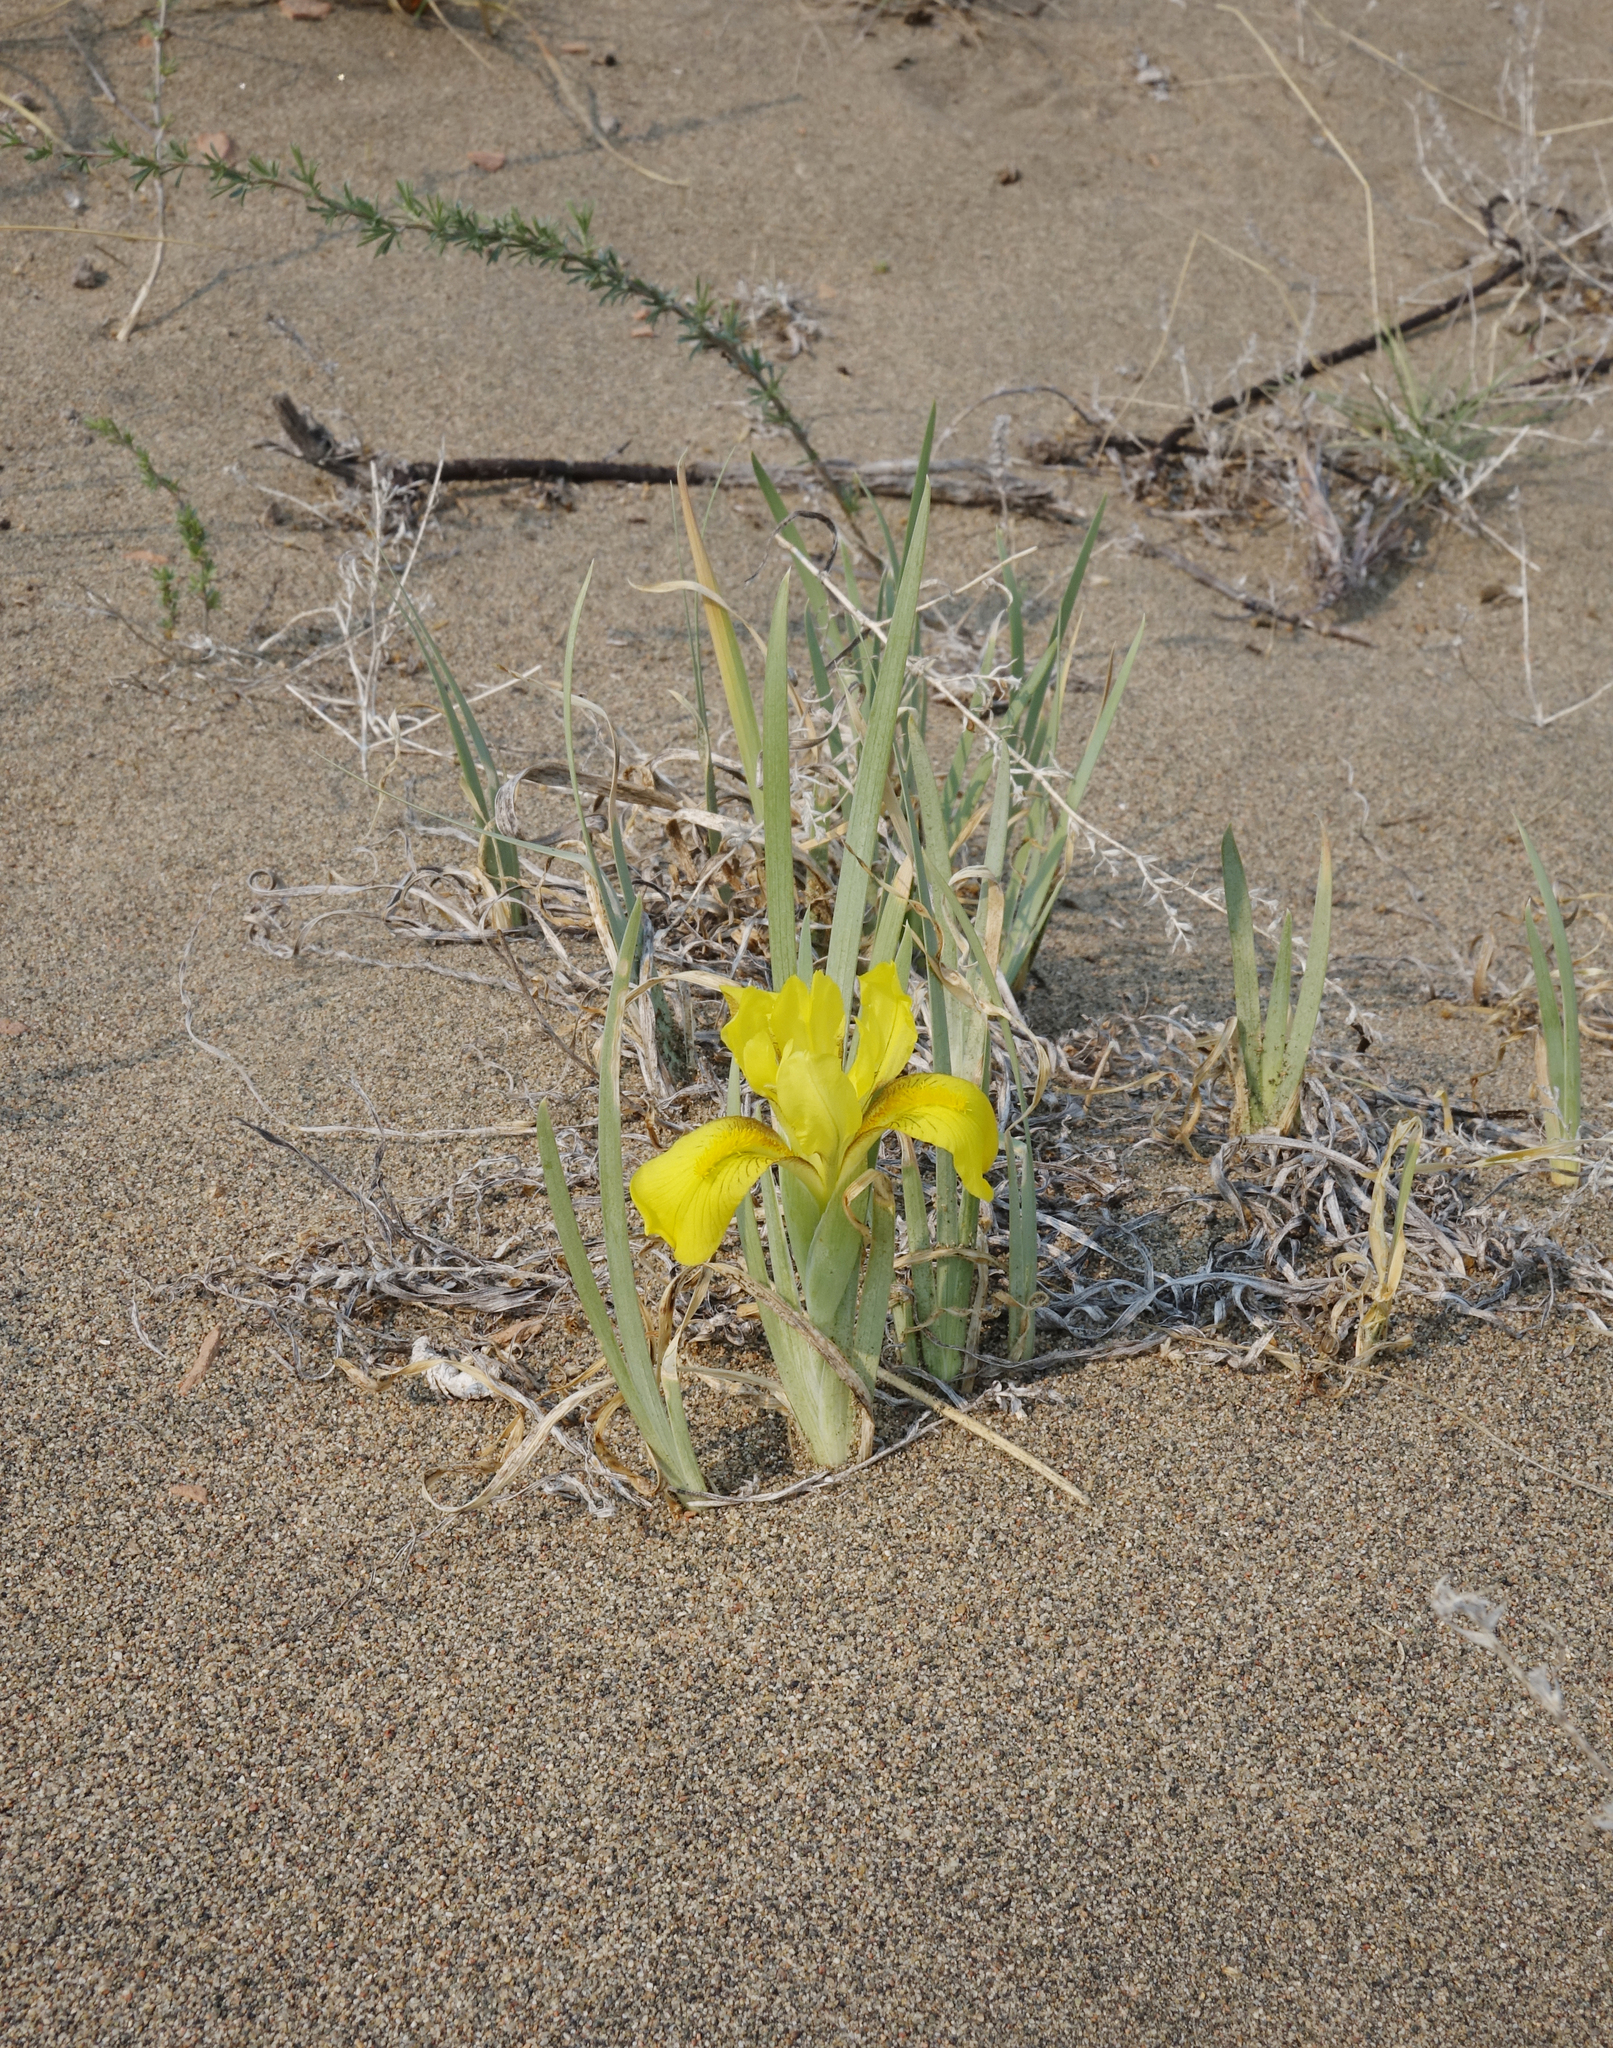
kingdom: Plantae
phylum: Tracheophyta
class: Liliopsida
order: Asparagales
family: Iridaceae
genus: Iris
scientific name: Iris humilis
